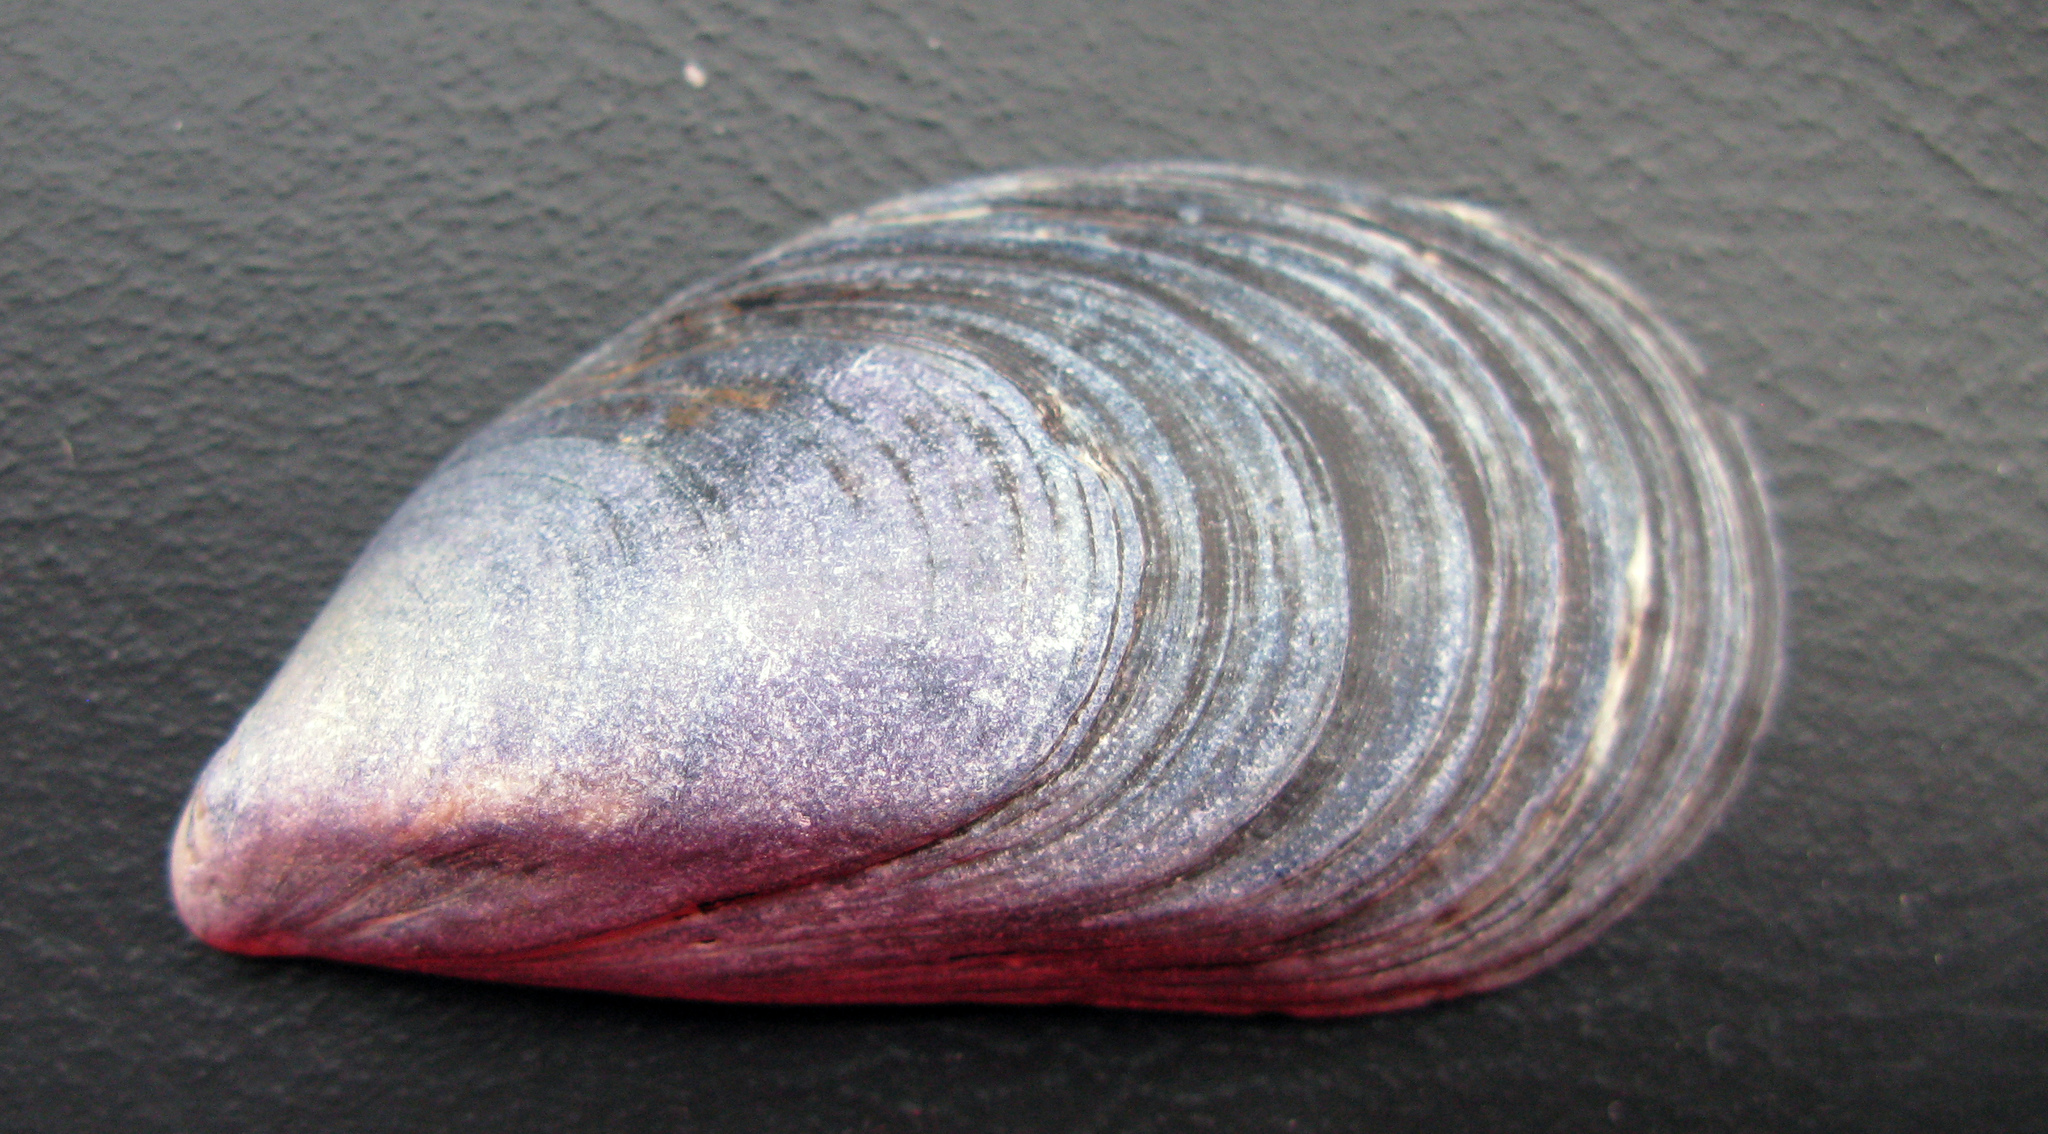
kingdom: Animalia
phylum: Mollusca
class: Bivalvia
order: Mytilida
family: Mytilidae
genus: Mytilus
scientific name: Mytilus galloprovincialis
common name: Mediterranean mussel
